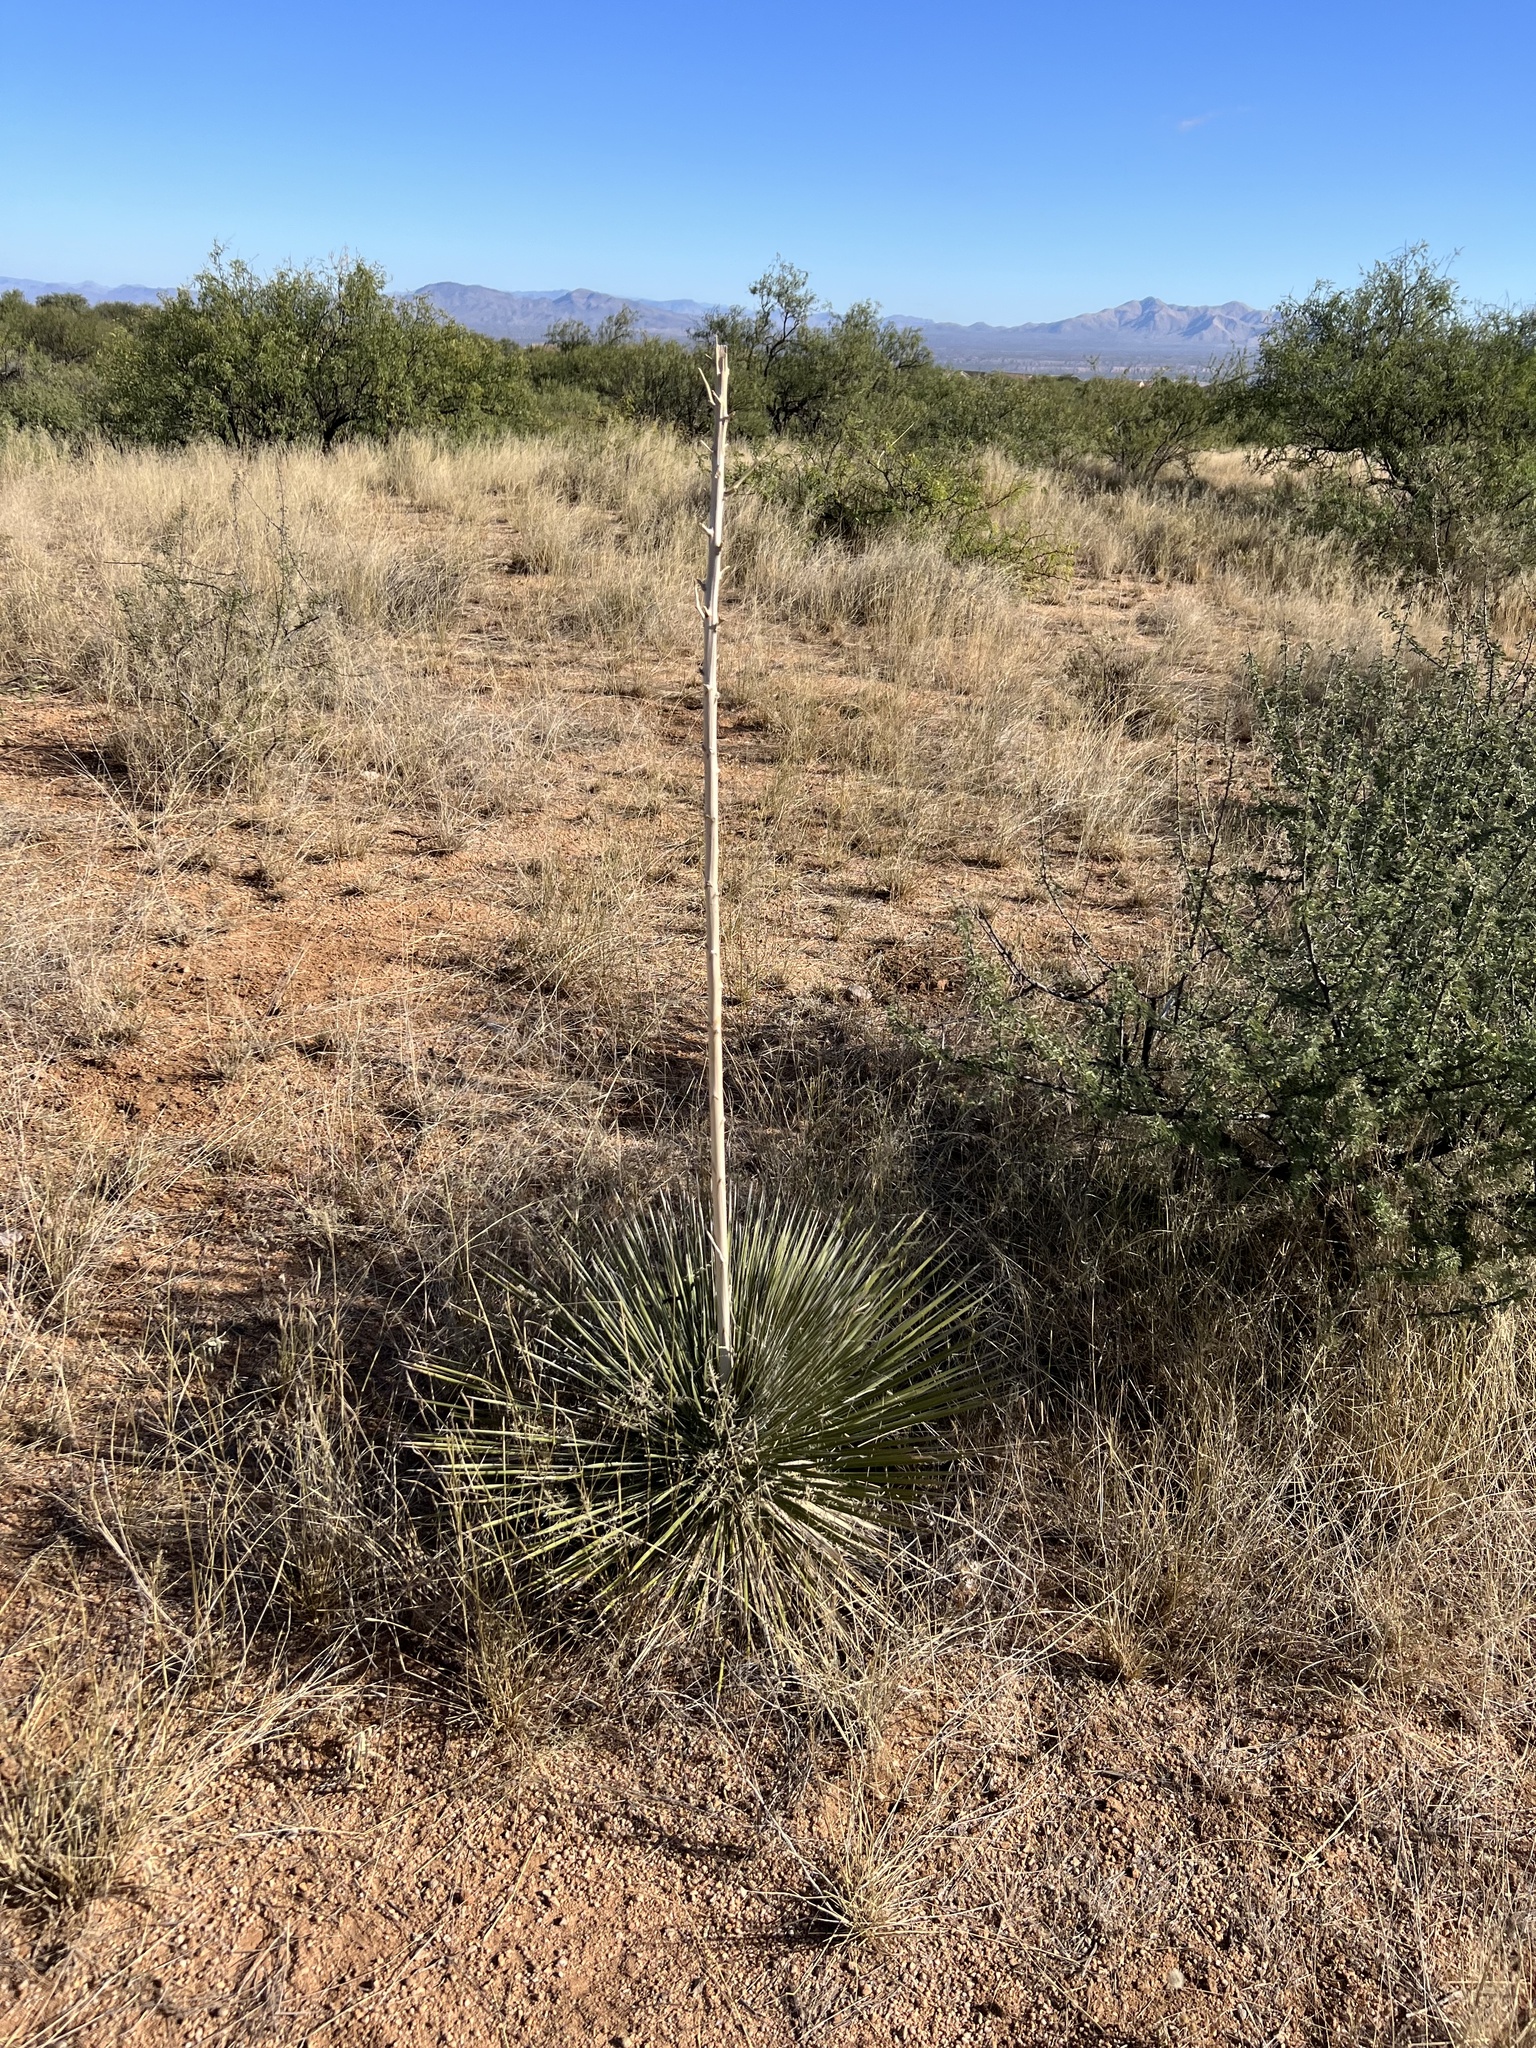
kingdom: Plantae
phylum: Tracheophyta
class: Liliopsida
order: Asparagales
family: Asparagaceae
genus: Yucca
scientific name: Yucca elata
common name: Palmella
